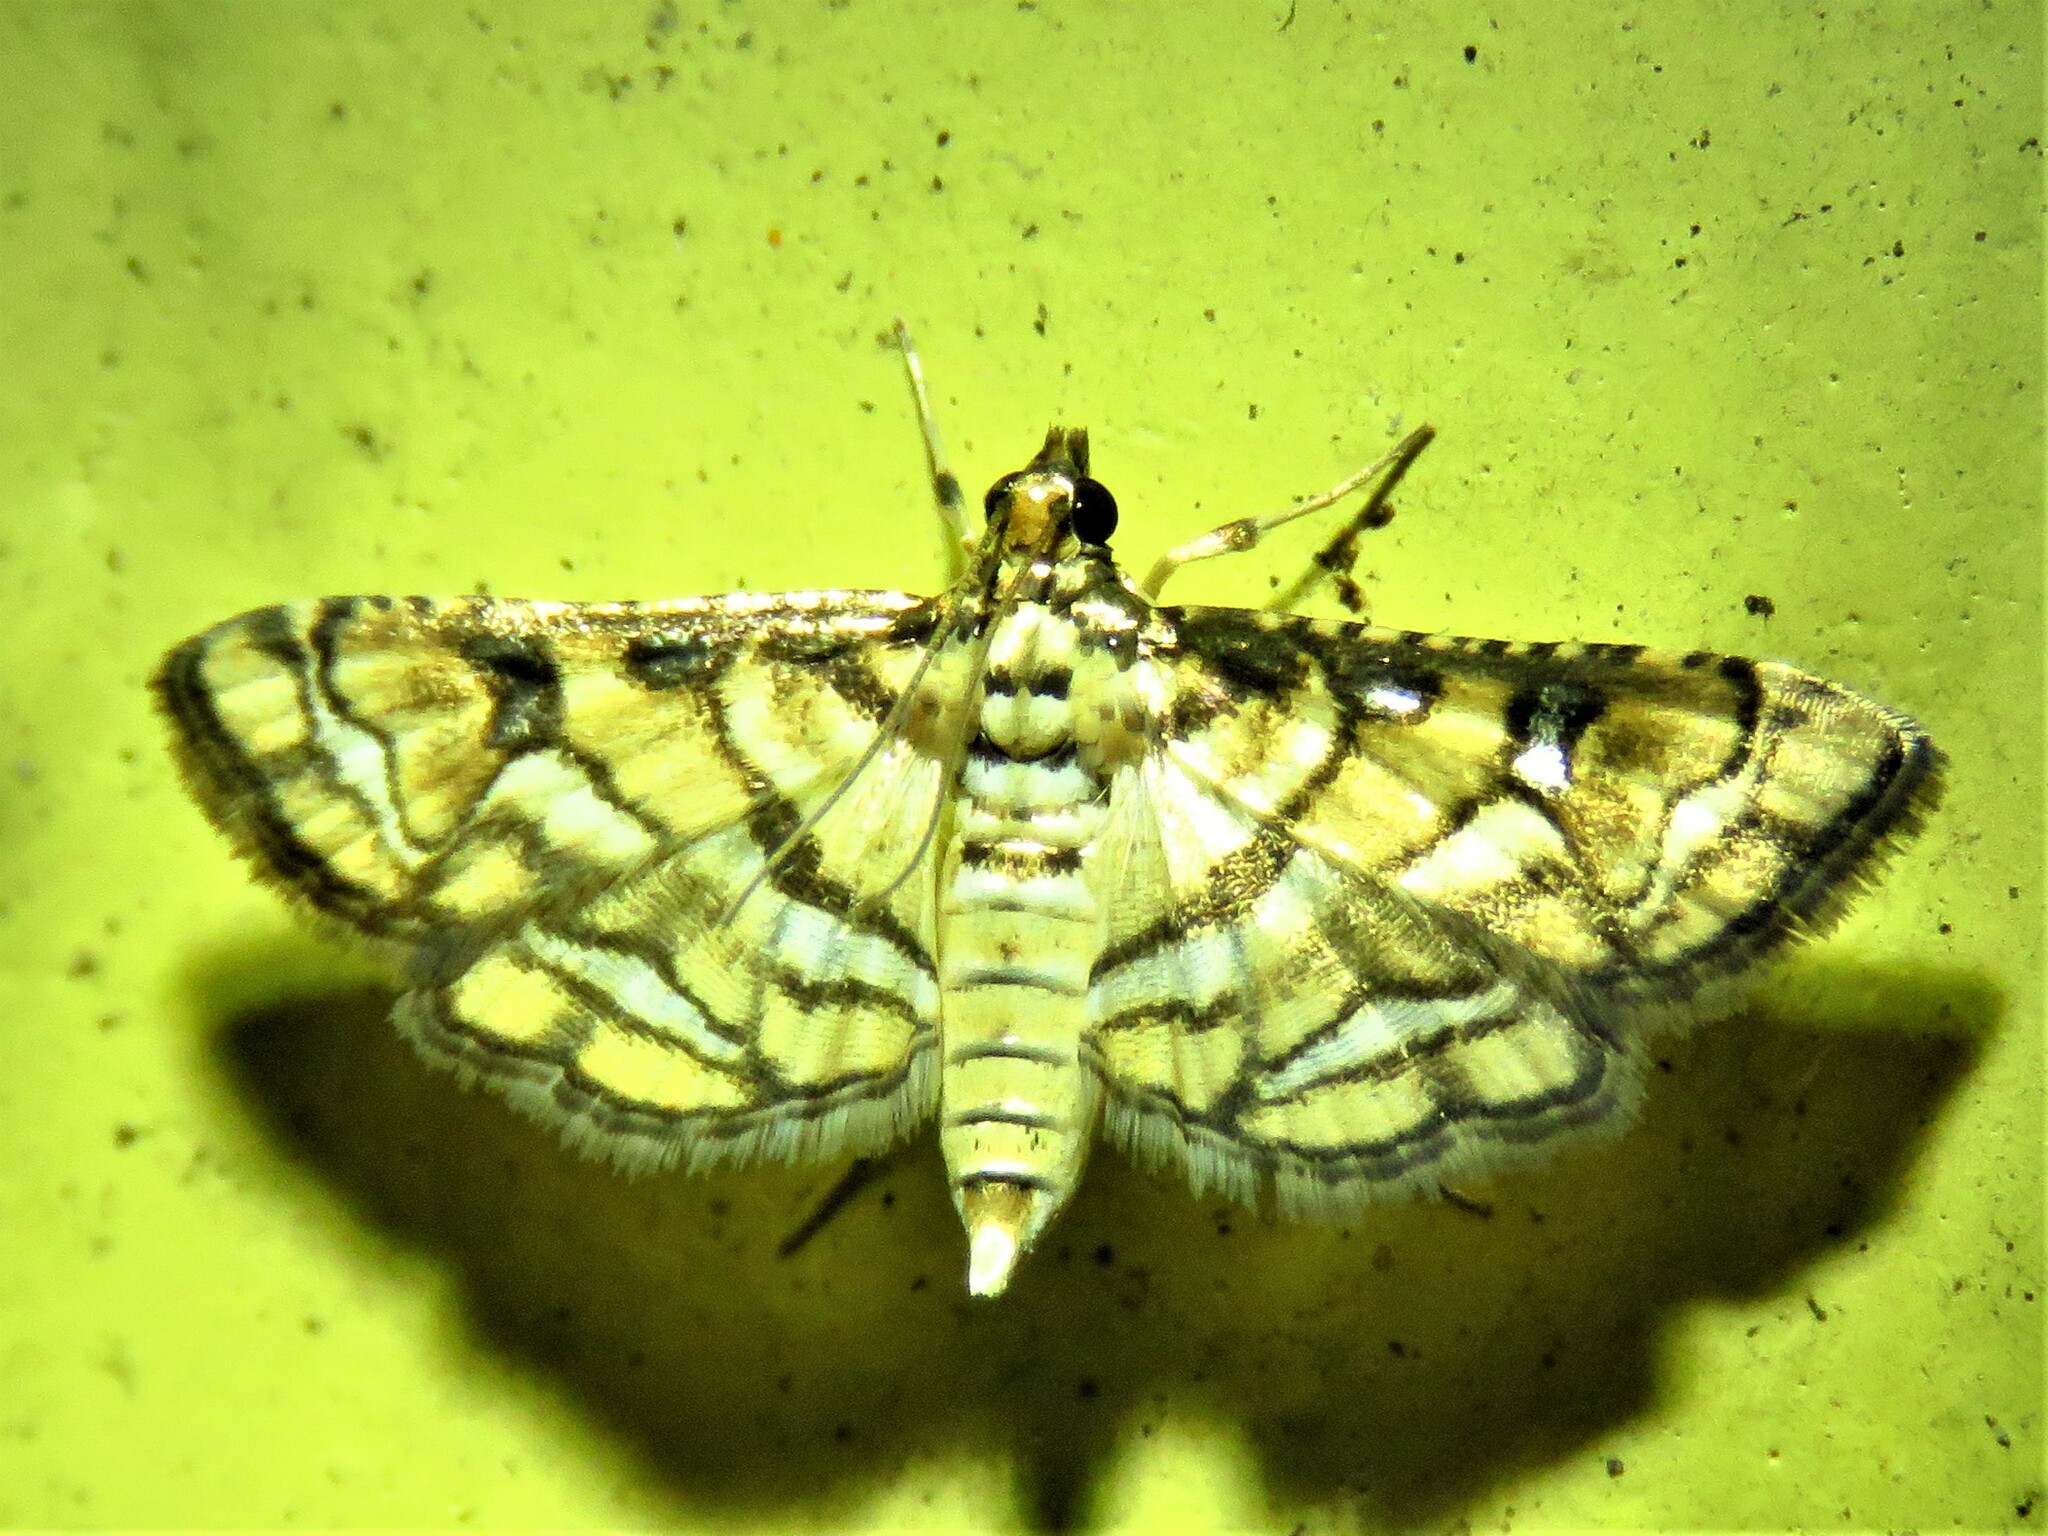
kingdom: Animalia
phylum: Arthropoda
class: Insecta
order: Lepidoptera
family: Crambidae
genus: Hileithia
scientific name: Hileithia magualis
